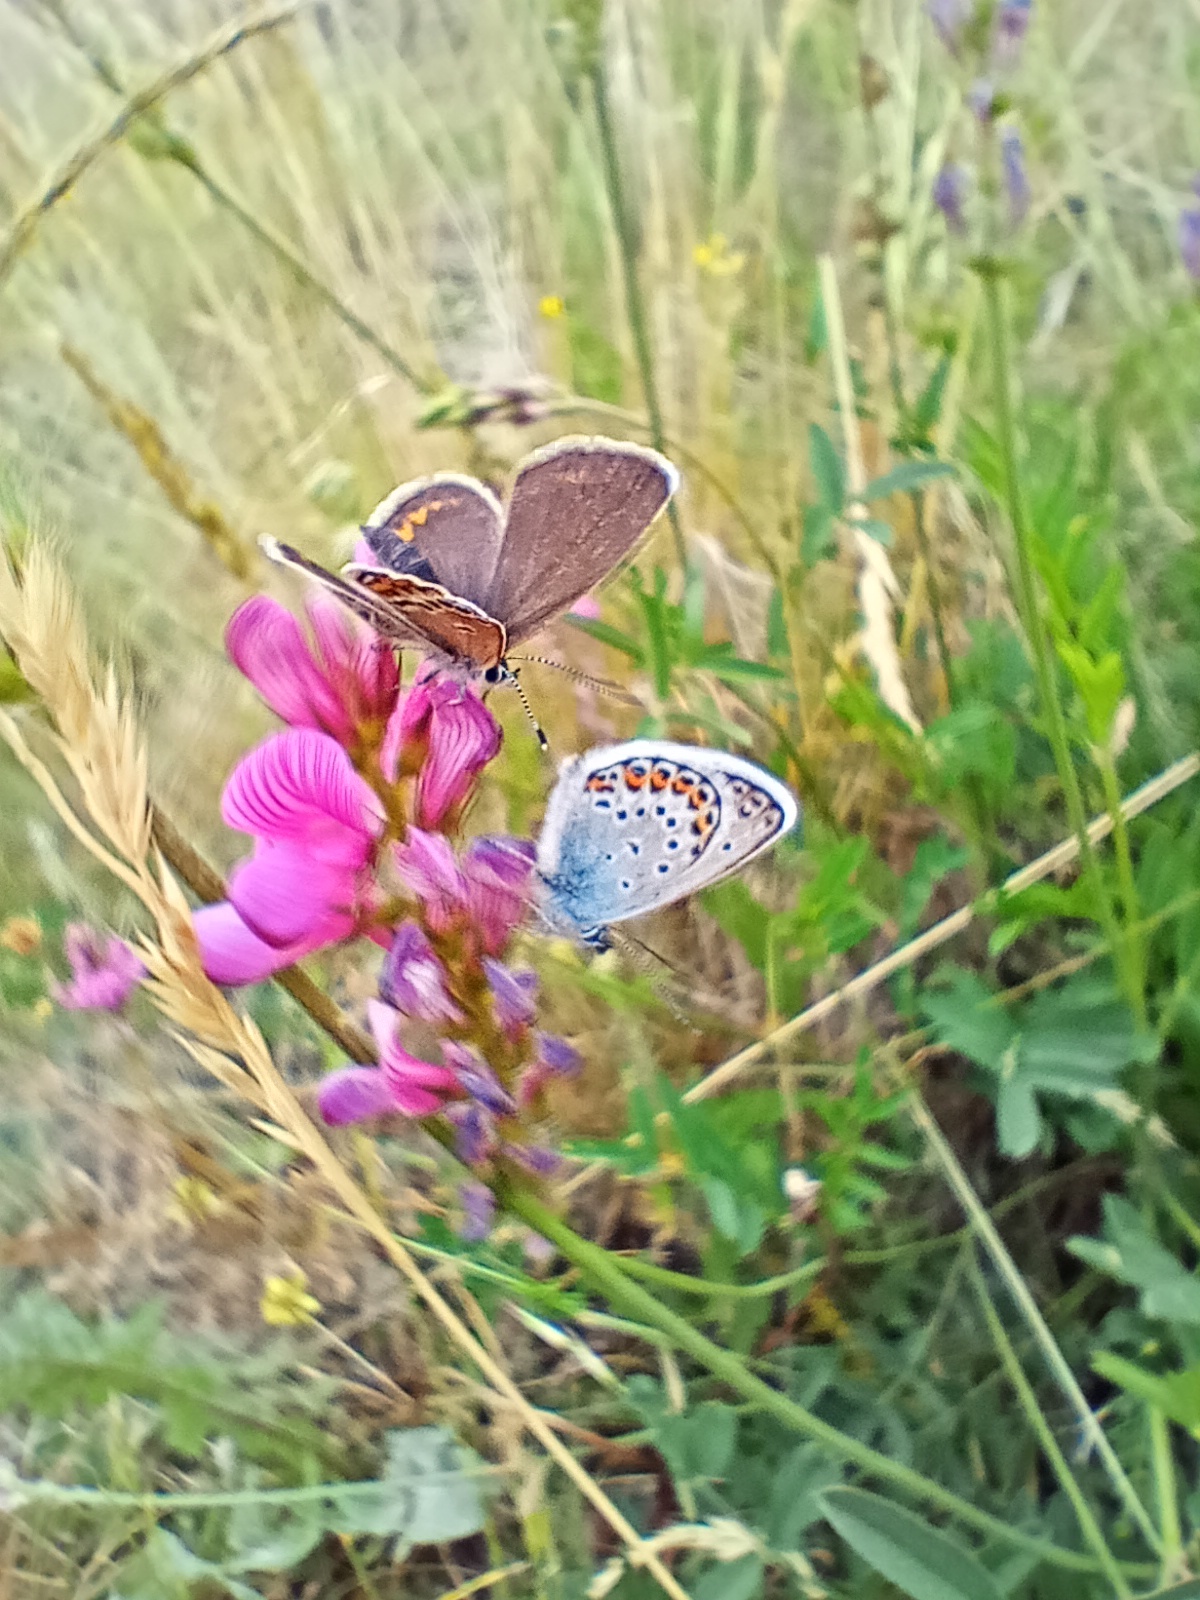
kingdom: Animalia
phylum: Arthropoda
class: Insecta
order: Lepidoptera
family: Lycaenidae
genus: Plebejus
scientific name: Plebejus argus
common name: Silver-studded blue
